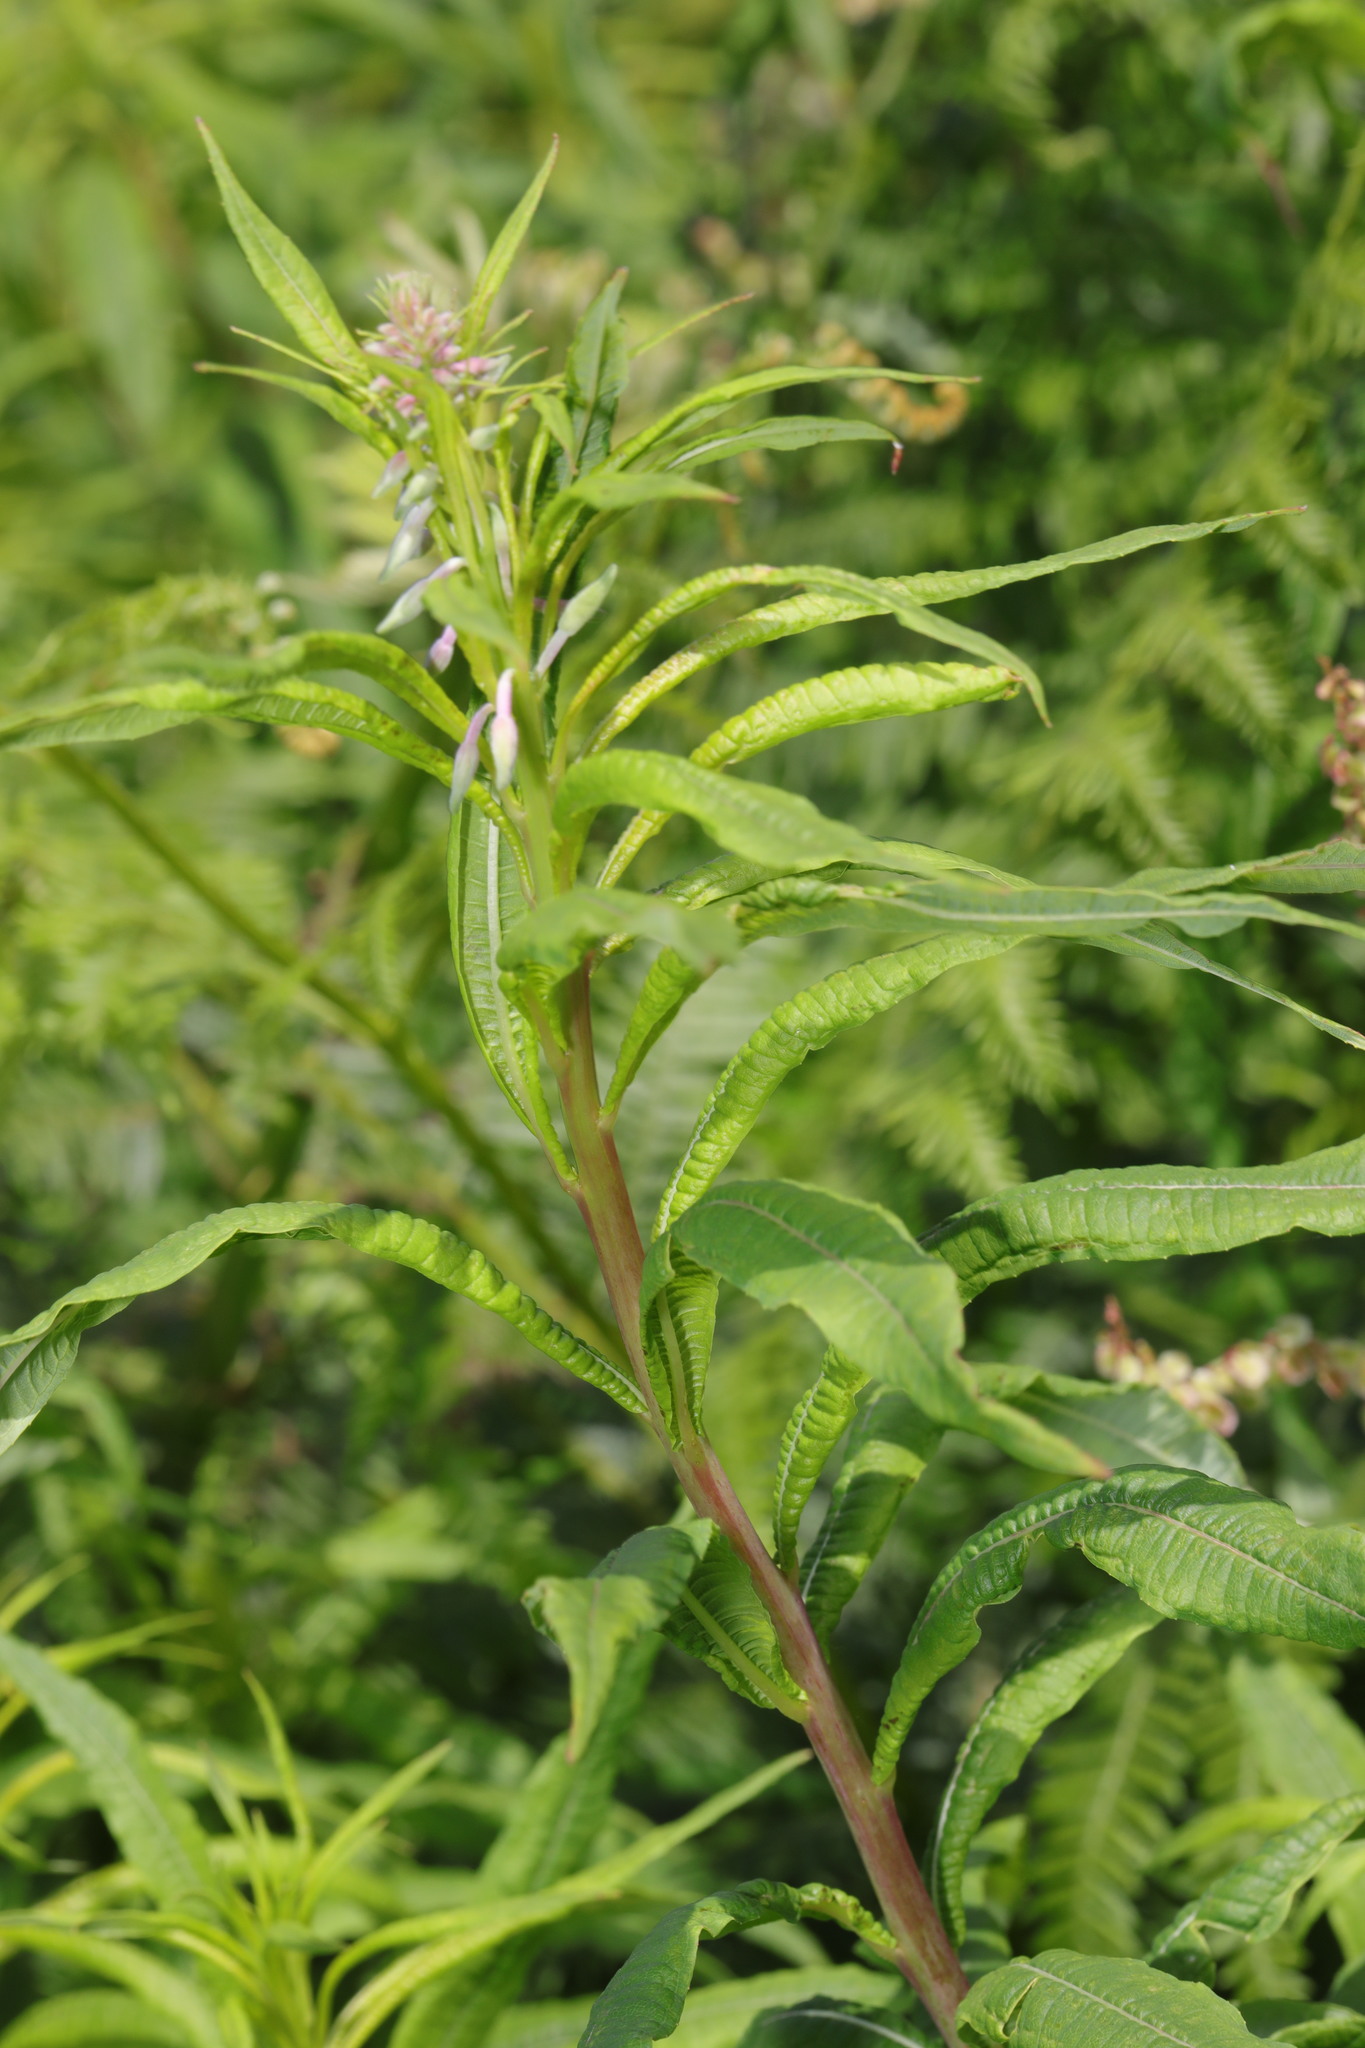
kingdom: Plantae
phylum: Tracheophyta
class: Magnoliopsida
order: Myrtales
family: Onagraceae
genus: Chamaenerion
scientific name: Chamaenerion angustifolium
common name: Fireweed
